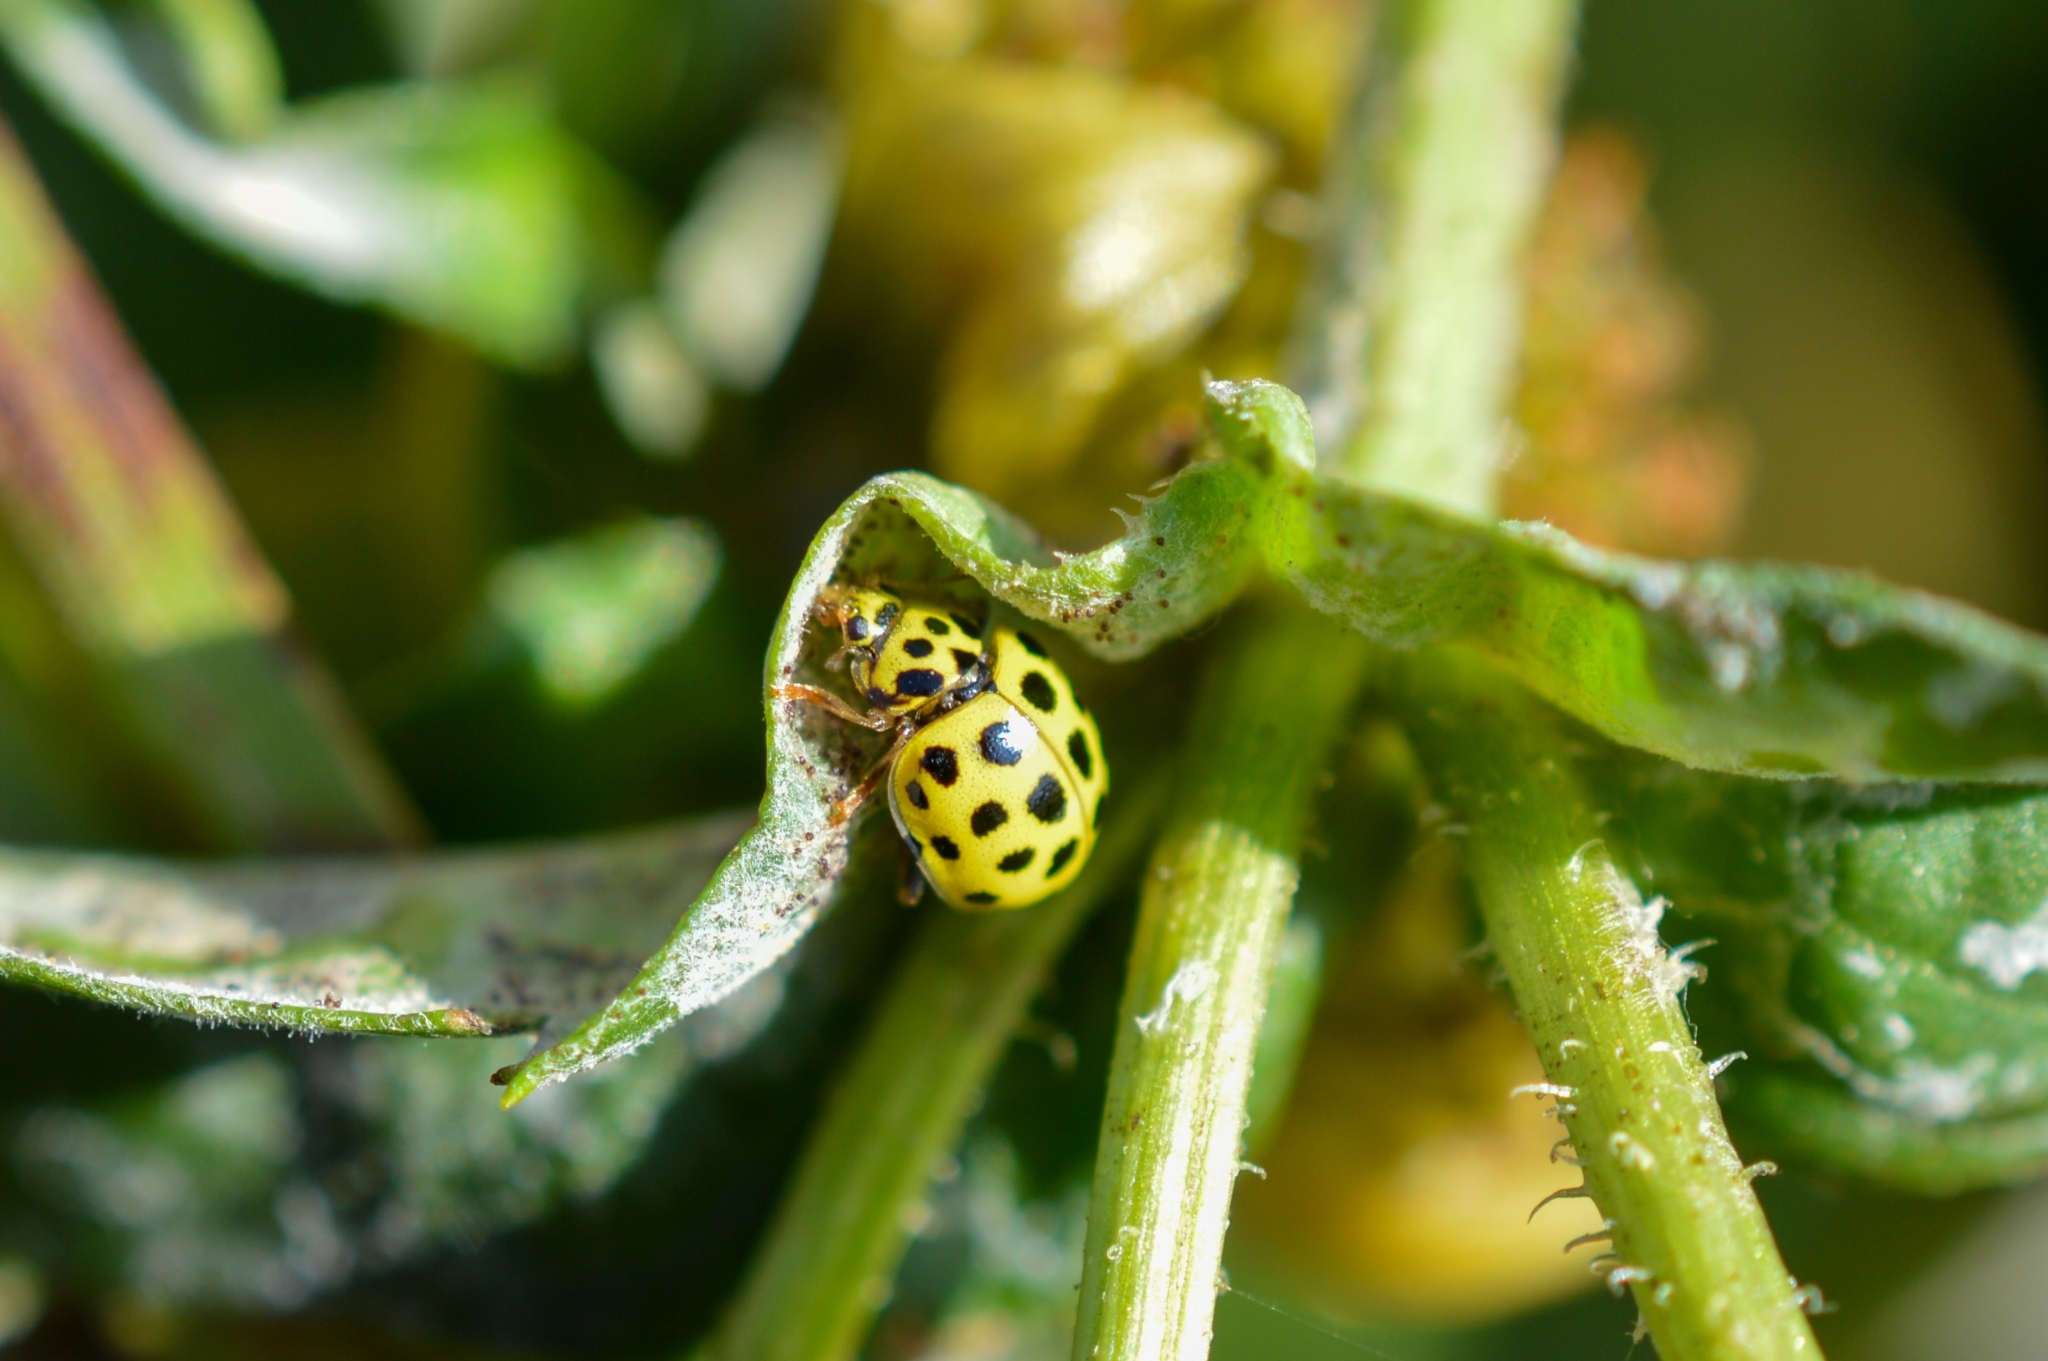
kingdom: Animalia
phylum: Arthropoda
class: Insecta
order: Coleoptera
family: Coccinellidae
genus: Psyllobora
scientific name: Psyllobora vigintiduopunctata
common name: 22-spot ladybird
